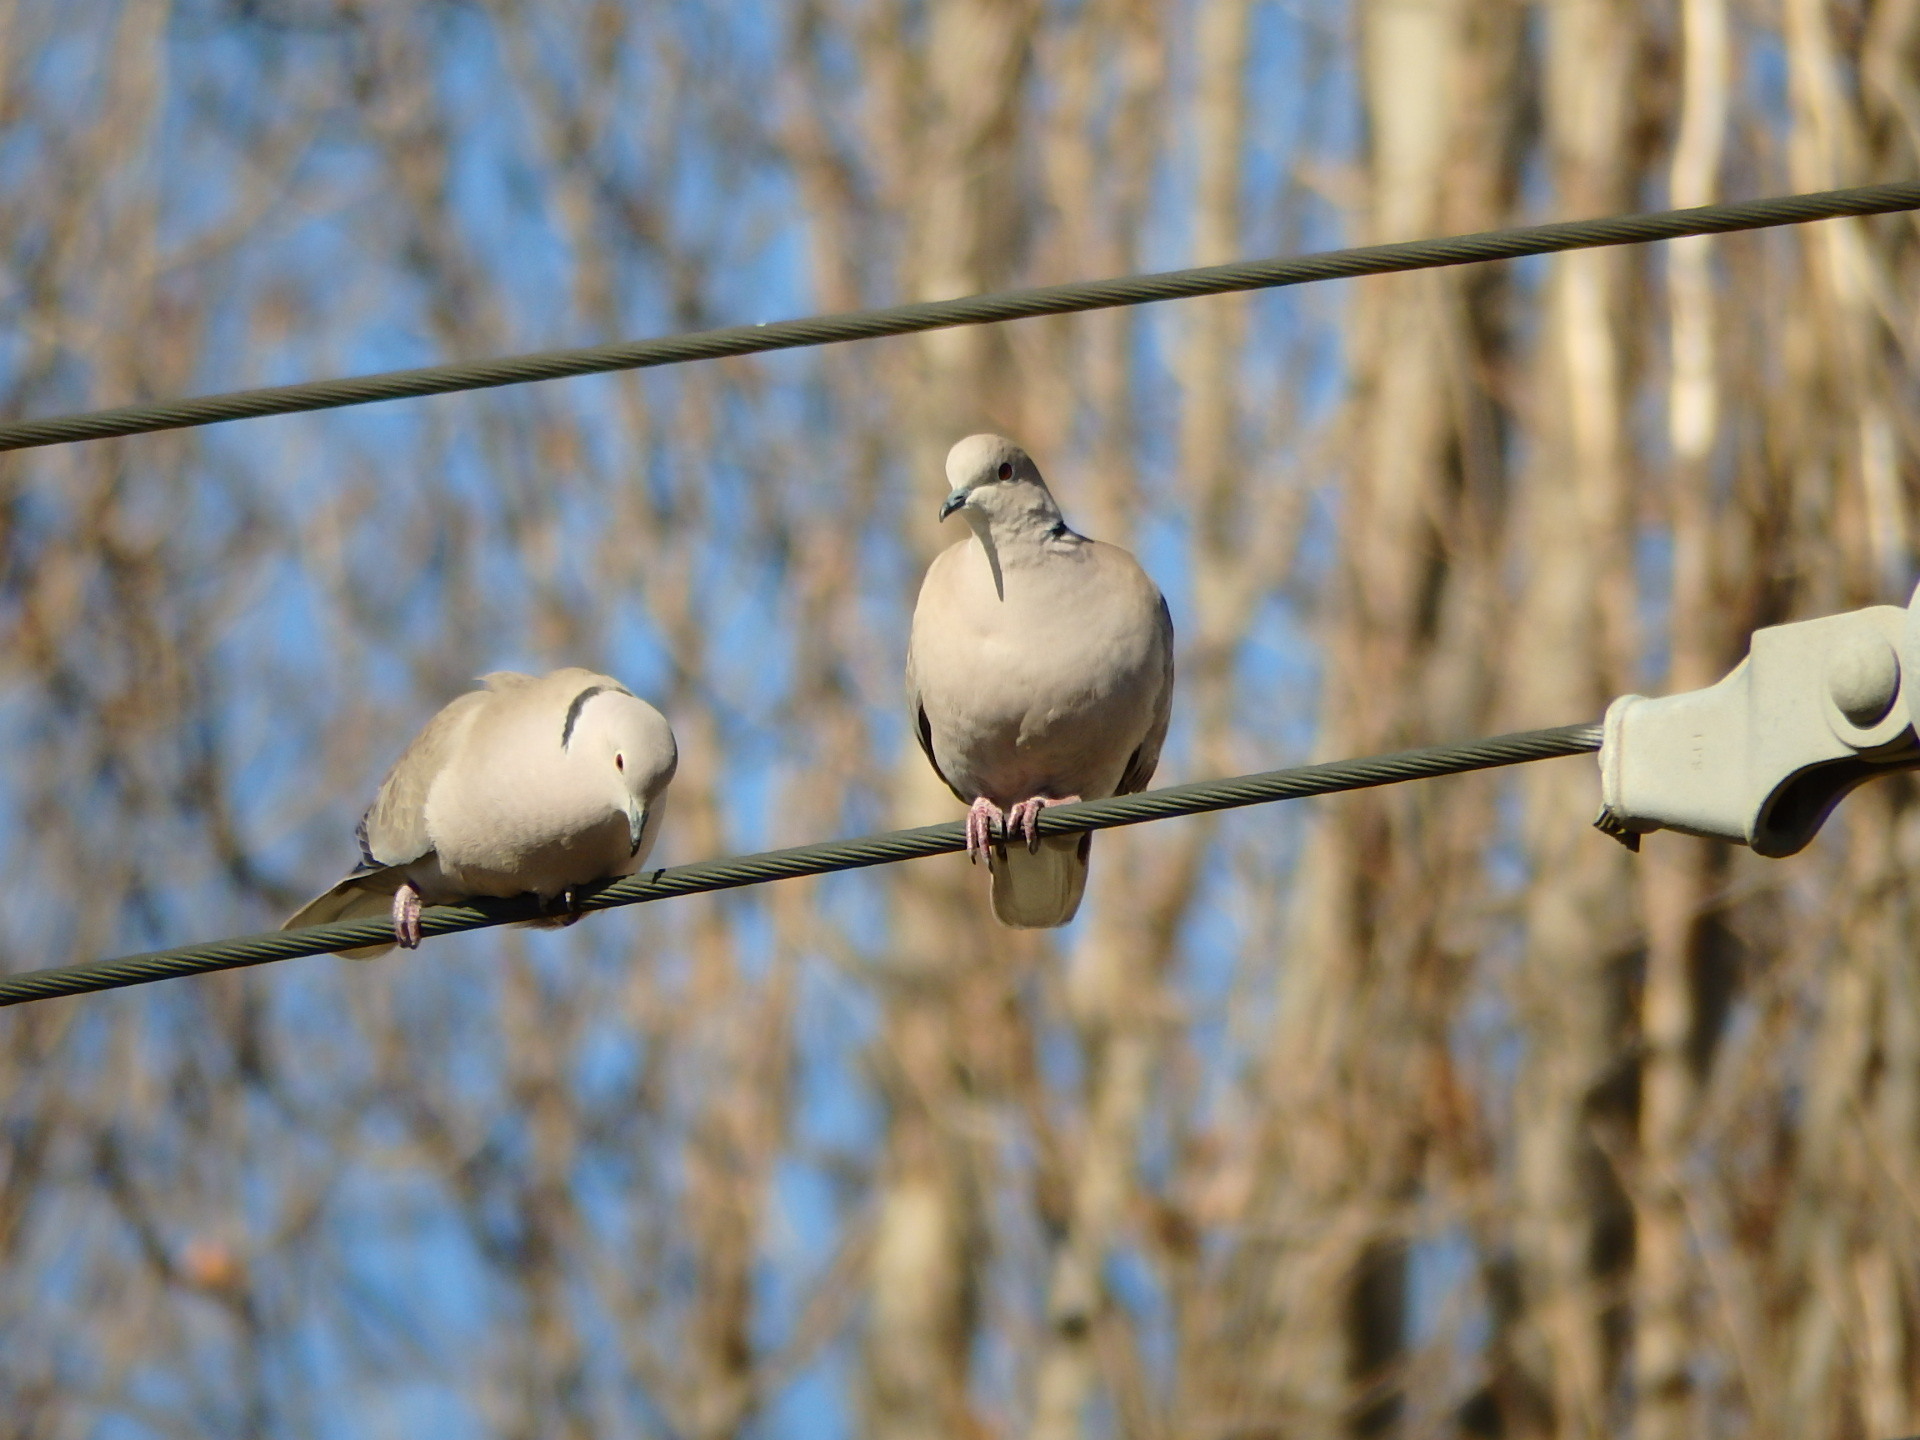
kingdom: Animalia
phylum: Chordata
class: Aves
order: Columbiformes
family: Columbidae
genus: Streptopelia
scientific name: Streptopelia decaocto
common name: Eurasian collared dove
